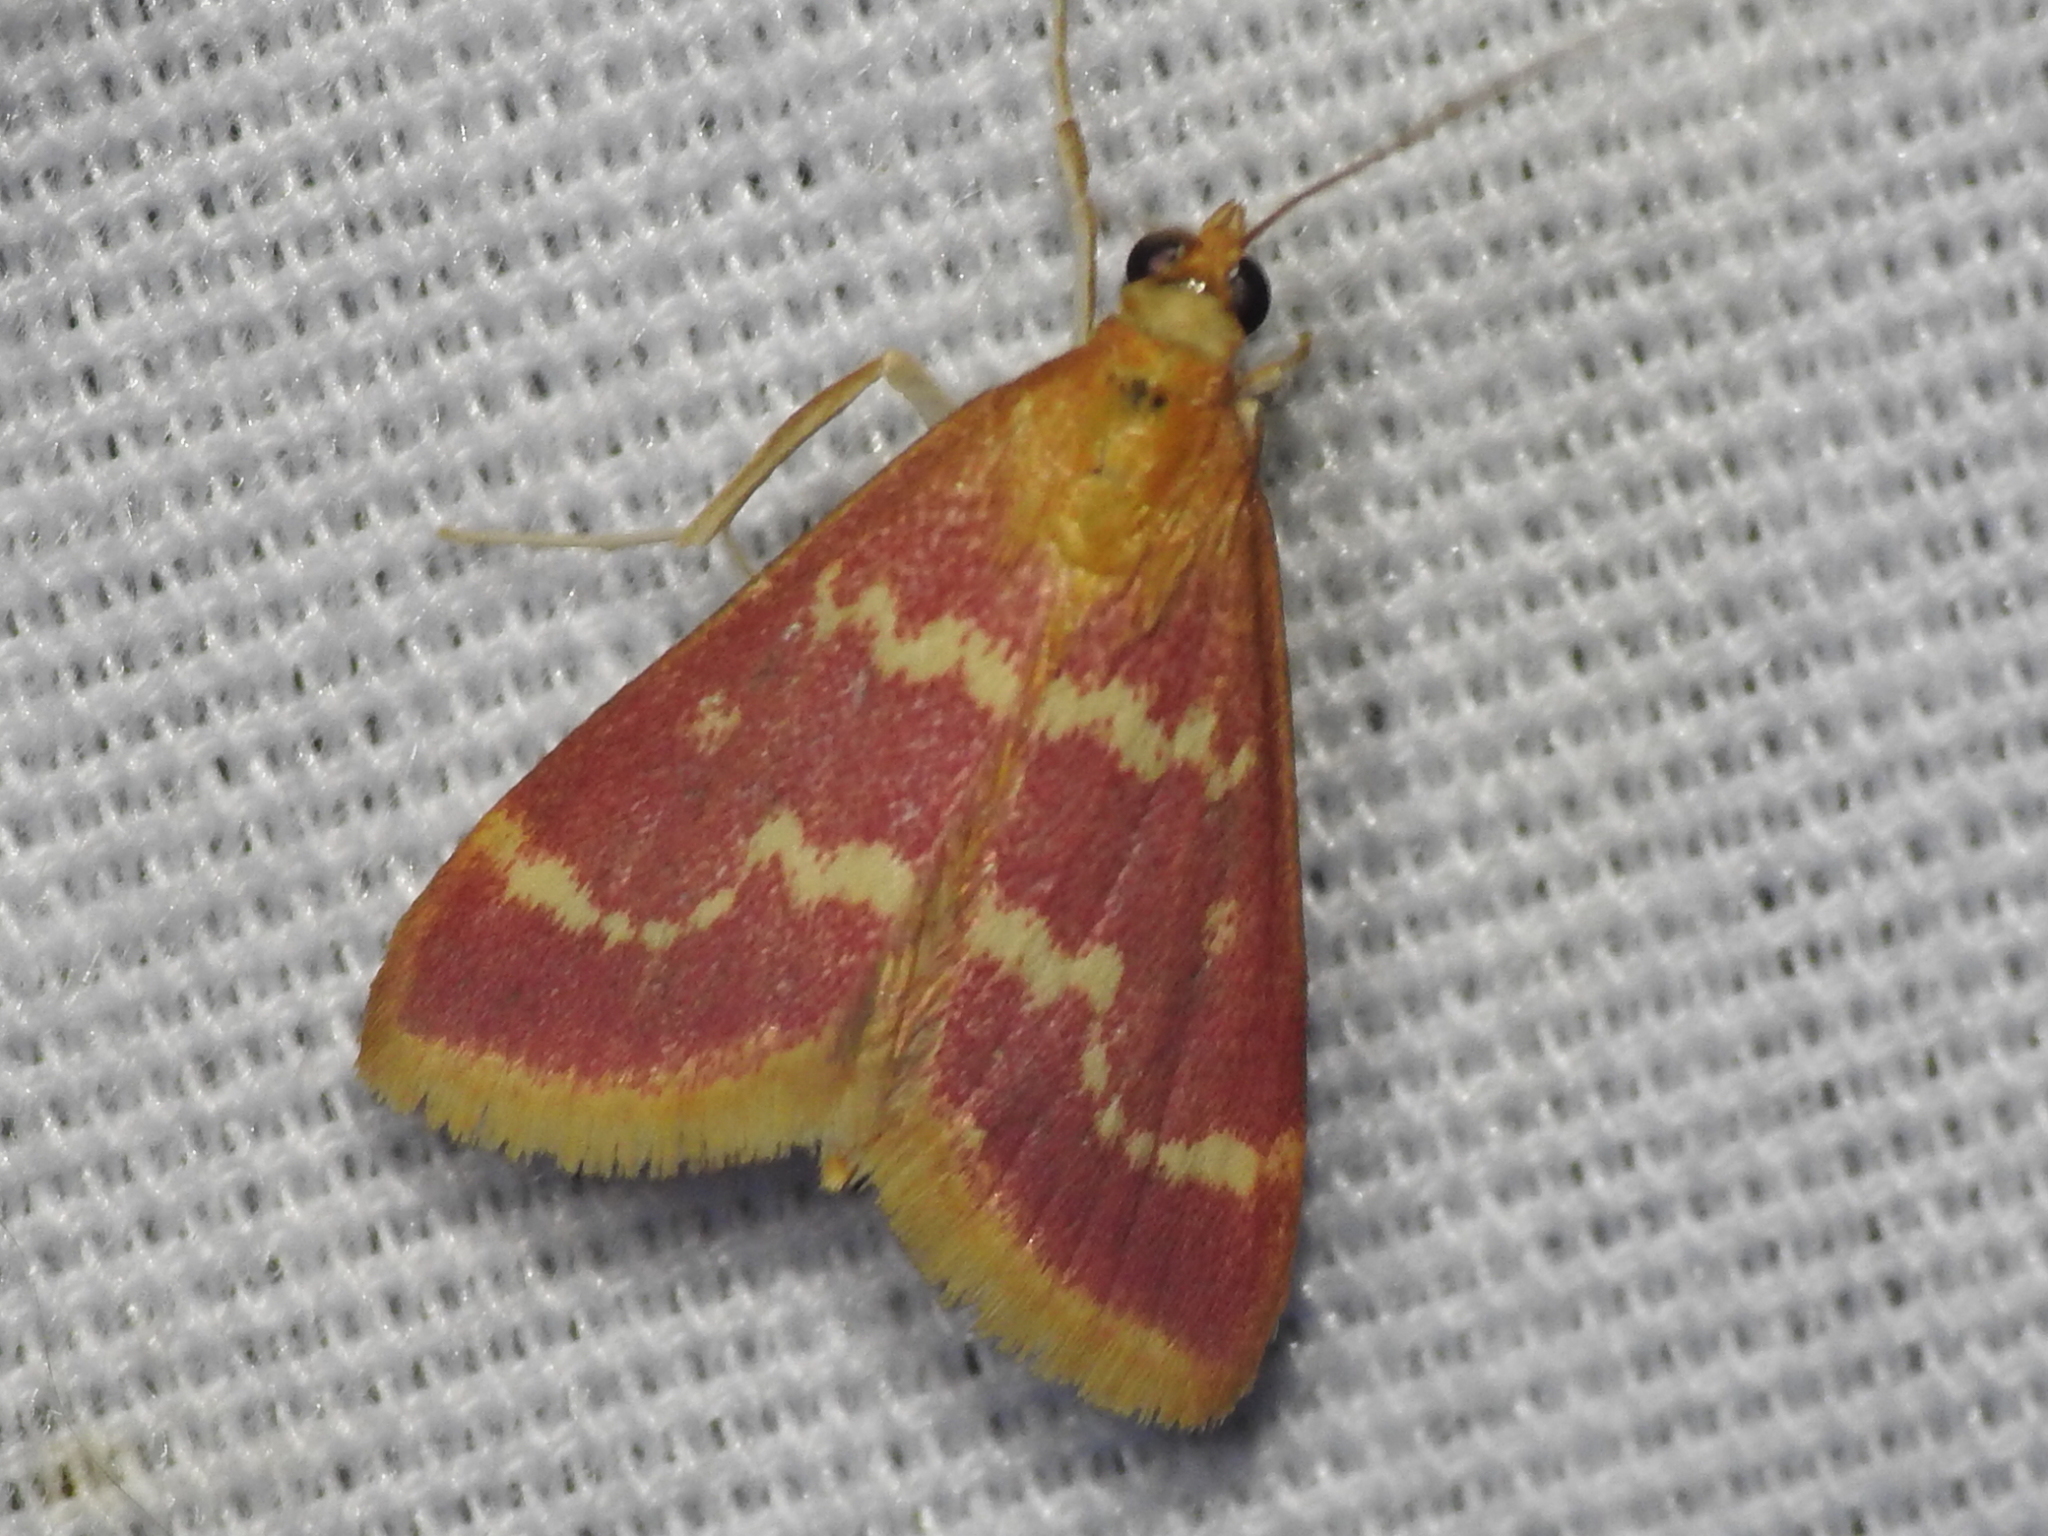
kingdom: Animalia
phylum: Arthropoda
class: Insecta
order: Lepidoptera
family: Crambidae
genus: Pyrausta
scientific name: Pyrausta volupialis
